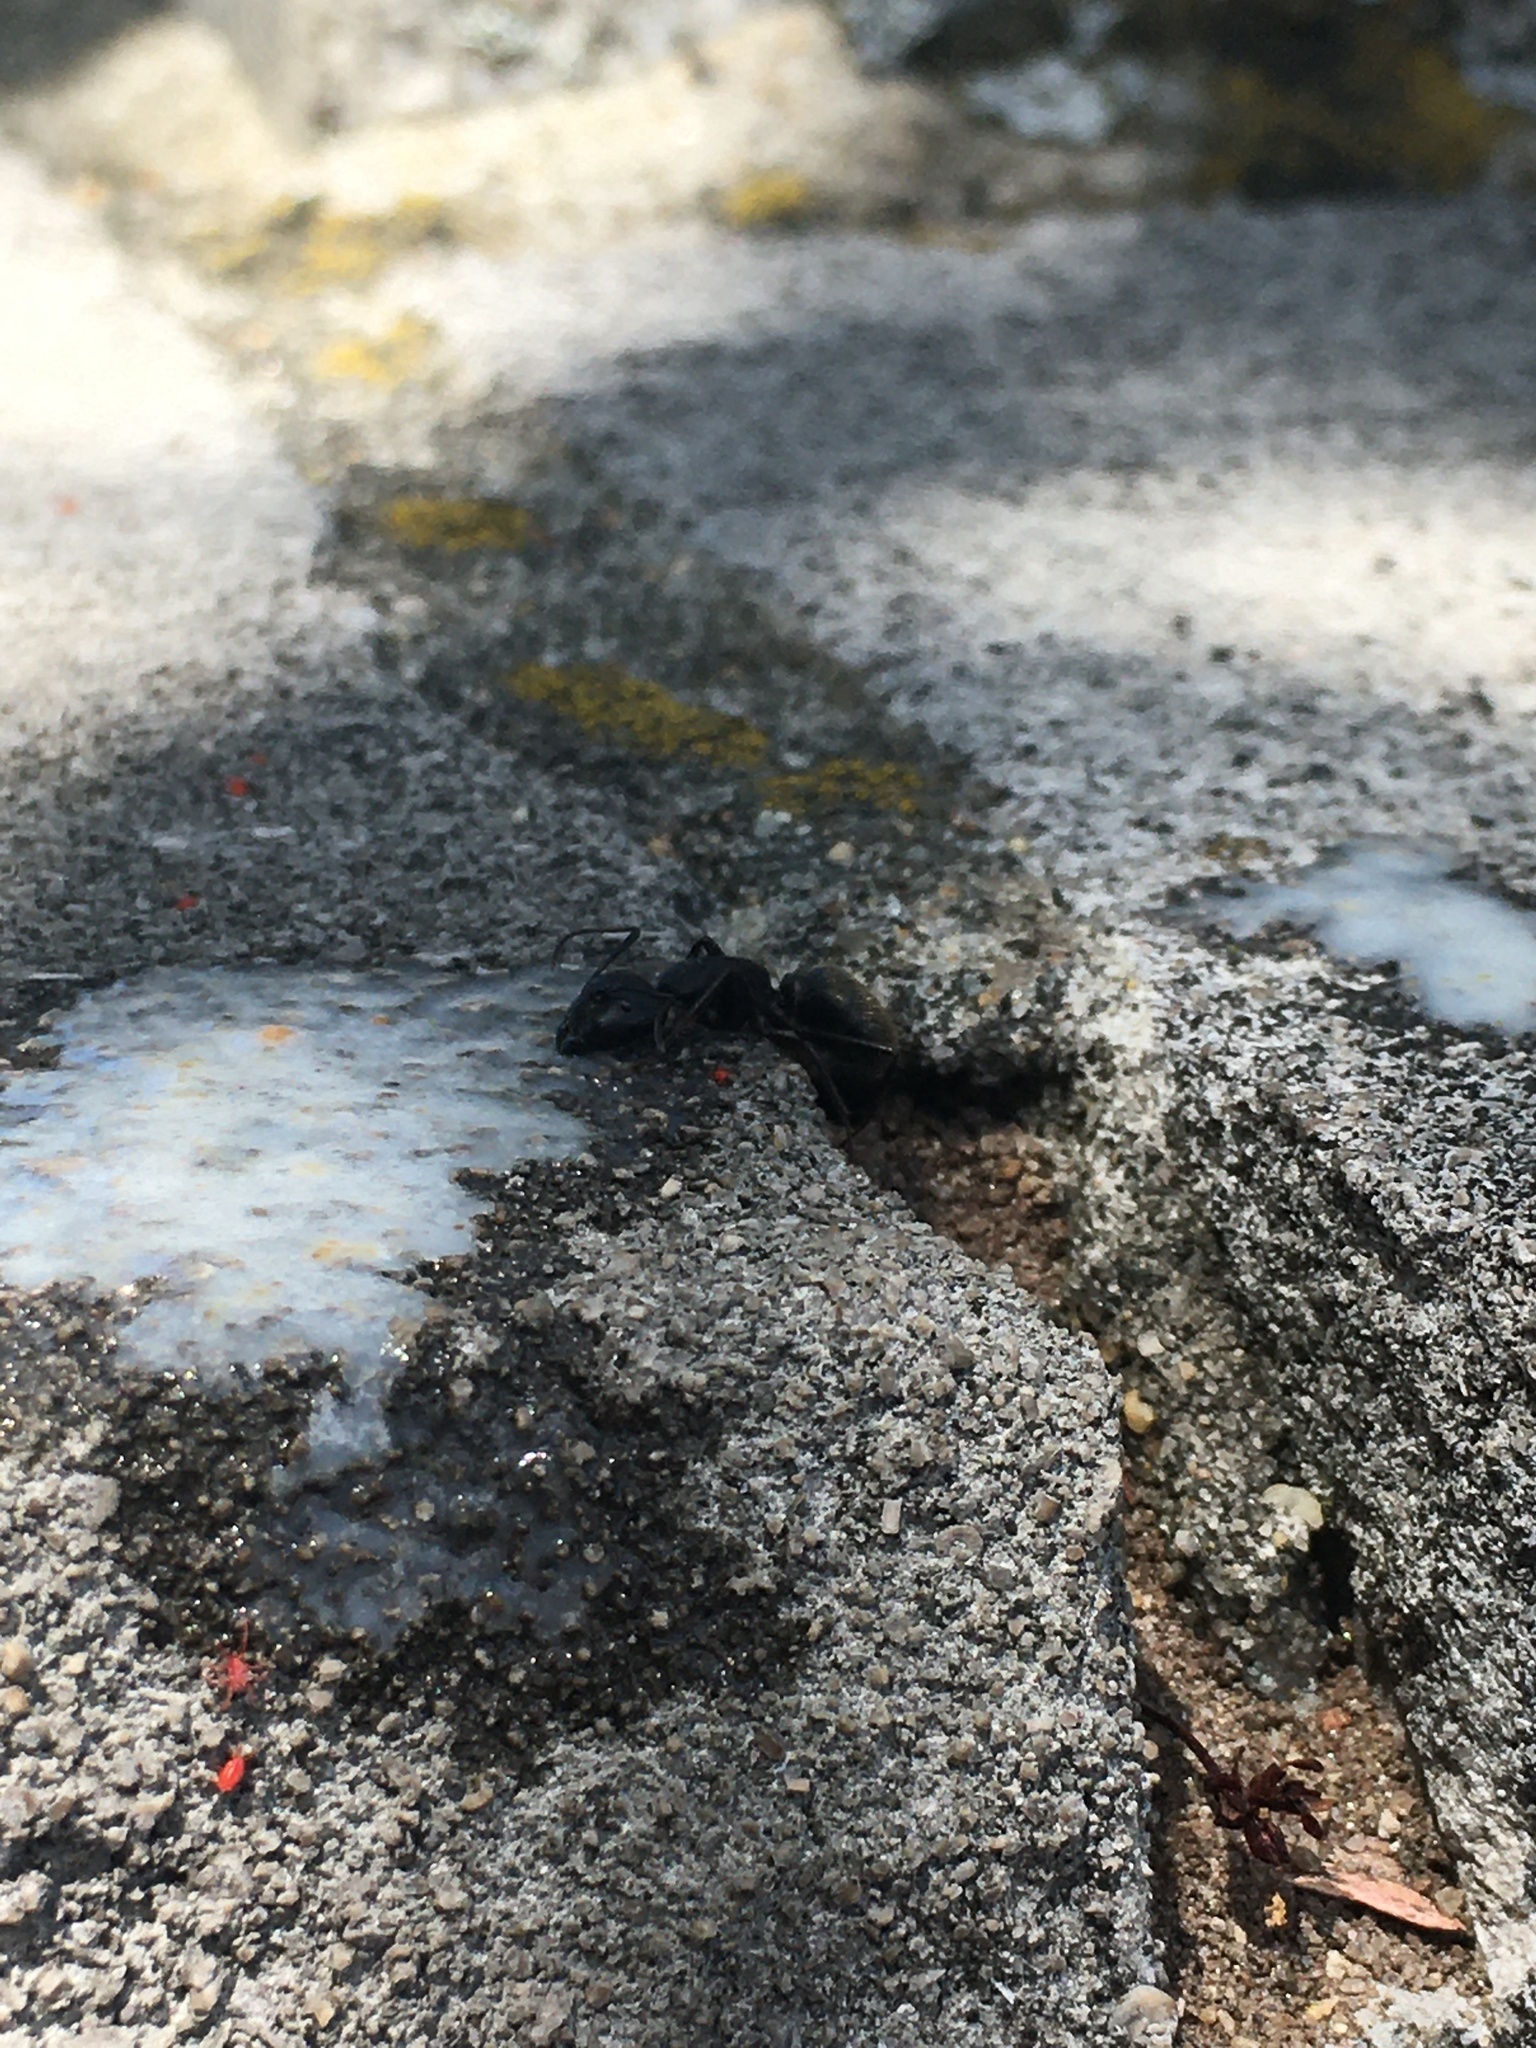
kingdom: Animalia
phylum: Arthropoda
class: Insecta
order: Hymenoptera
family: Formicidae
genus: Camponotus
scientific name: Camponotus pennsylvanicus
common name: Black carpenter ant
